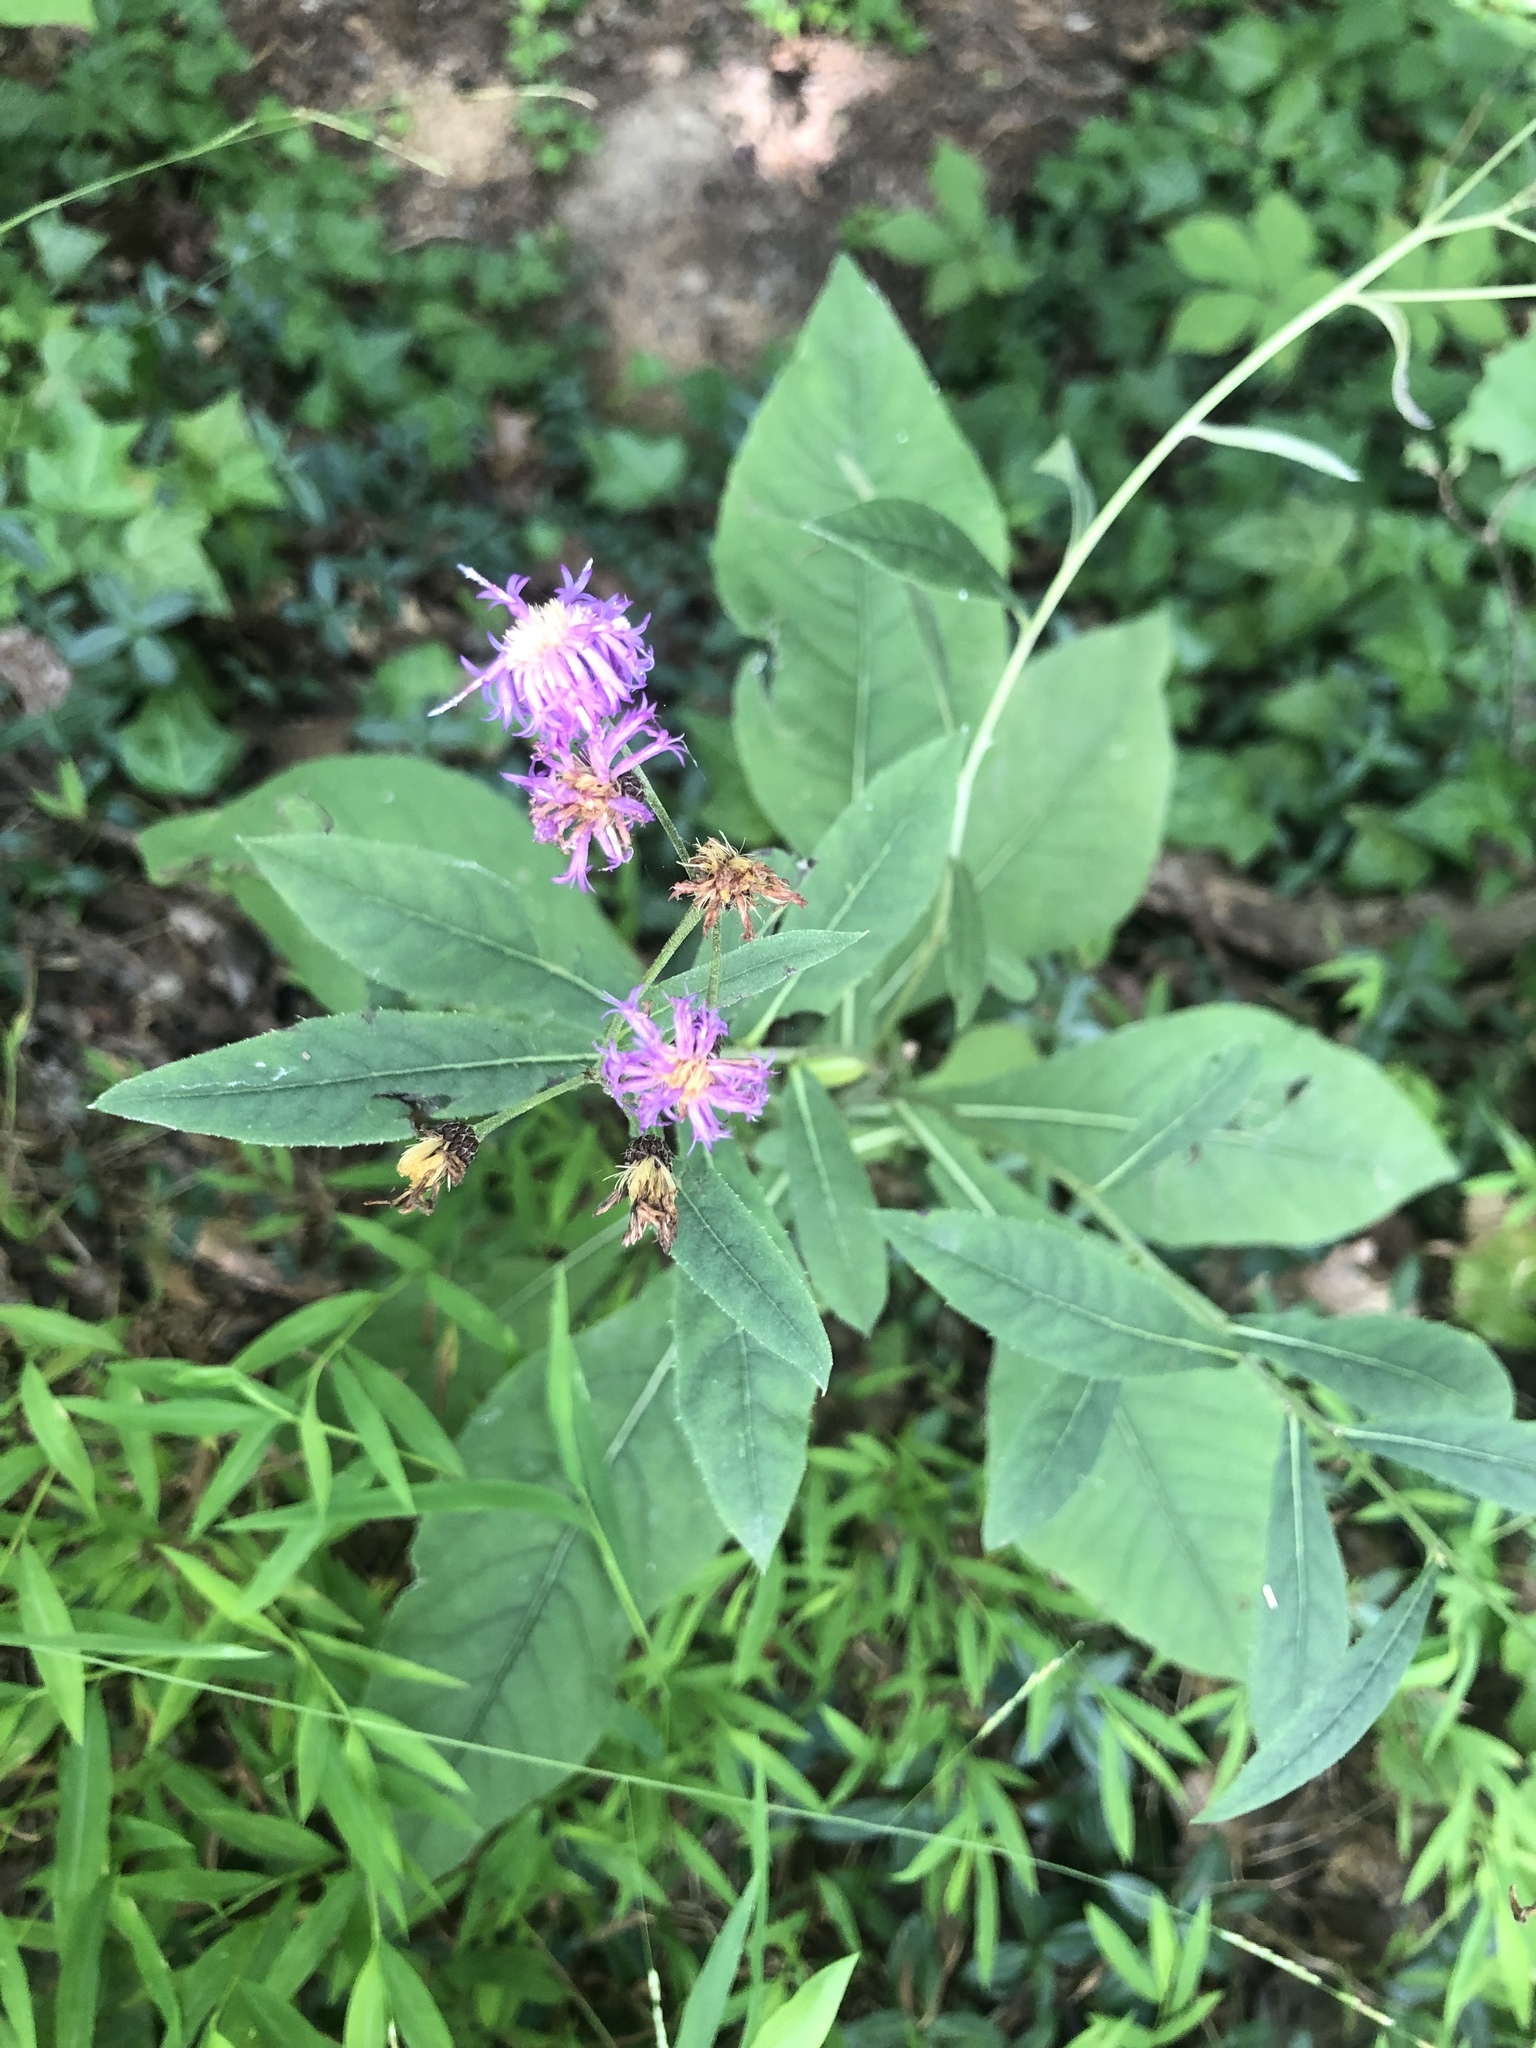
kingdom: Plantae
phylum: Tracheophyta
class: Magnoliopsida
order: Asterales
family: Asteraceae
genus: Vernonia
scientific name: Vernonia glauca
